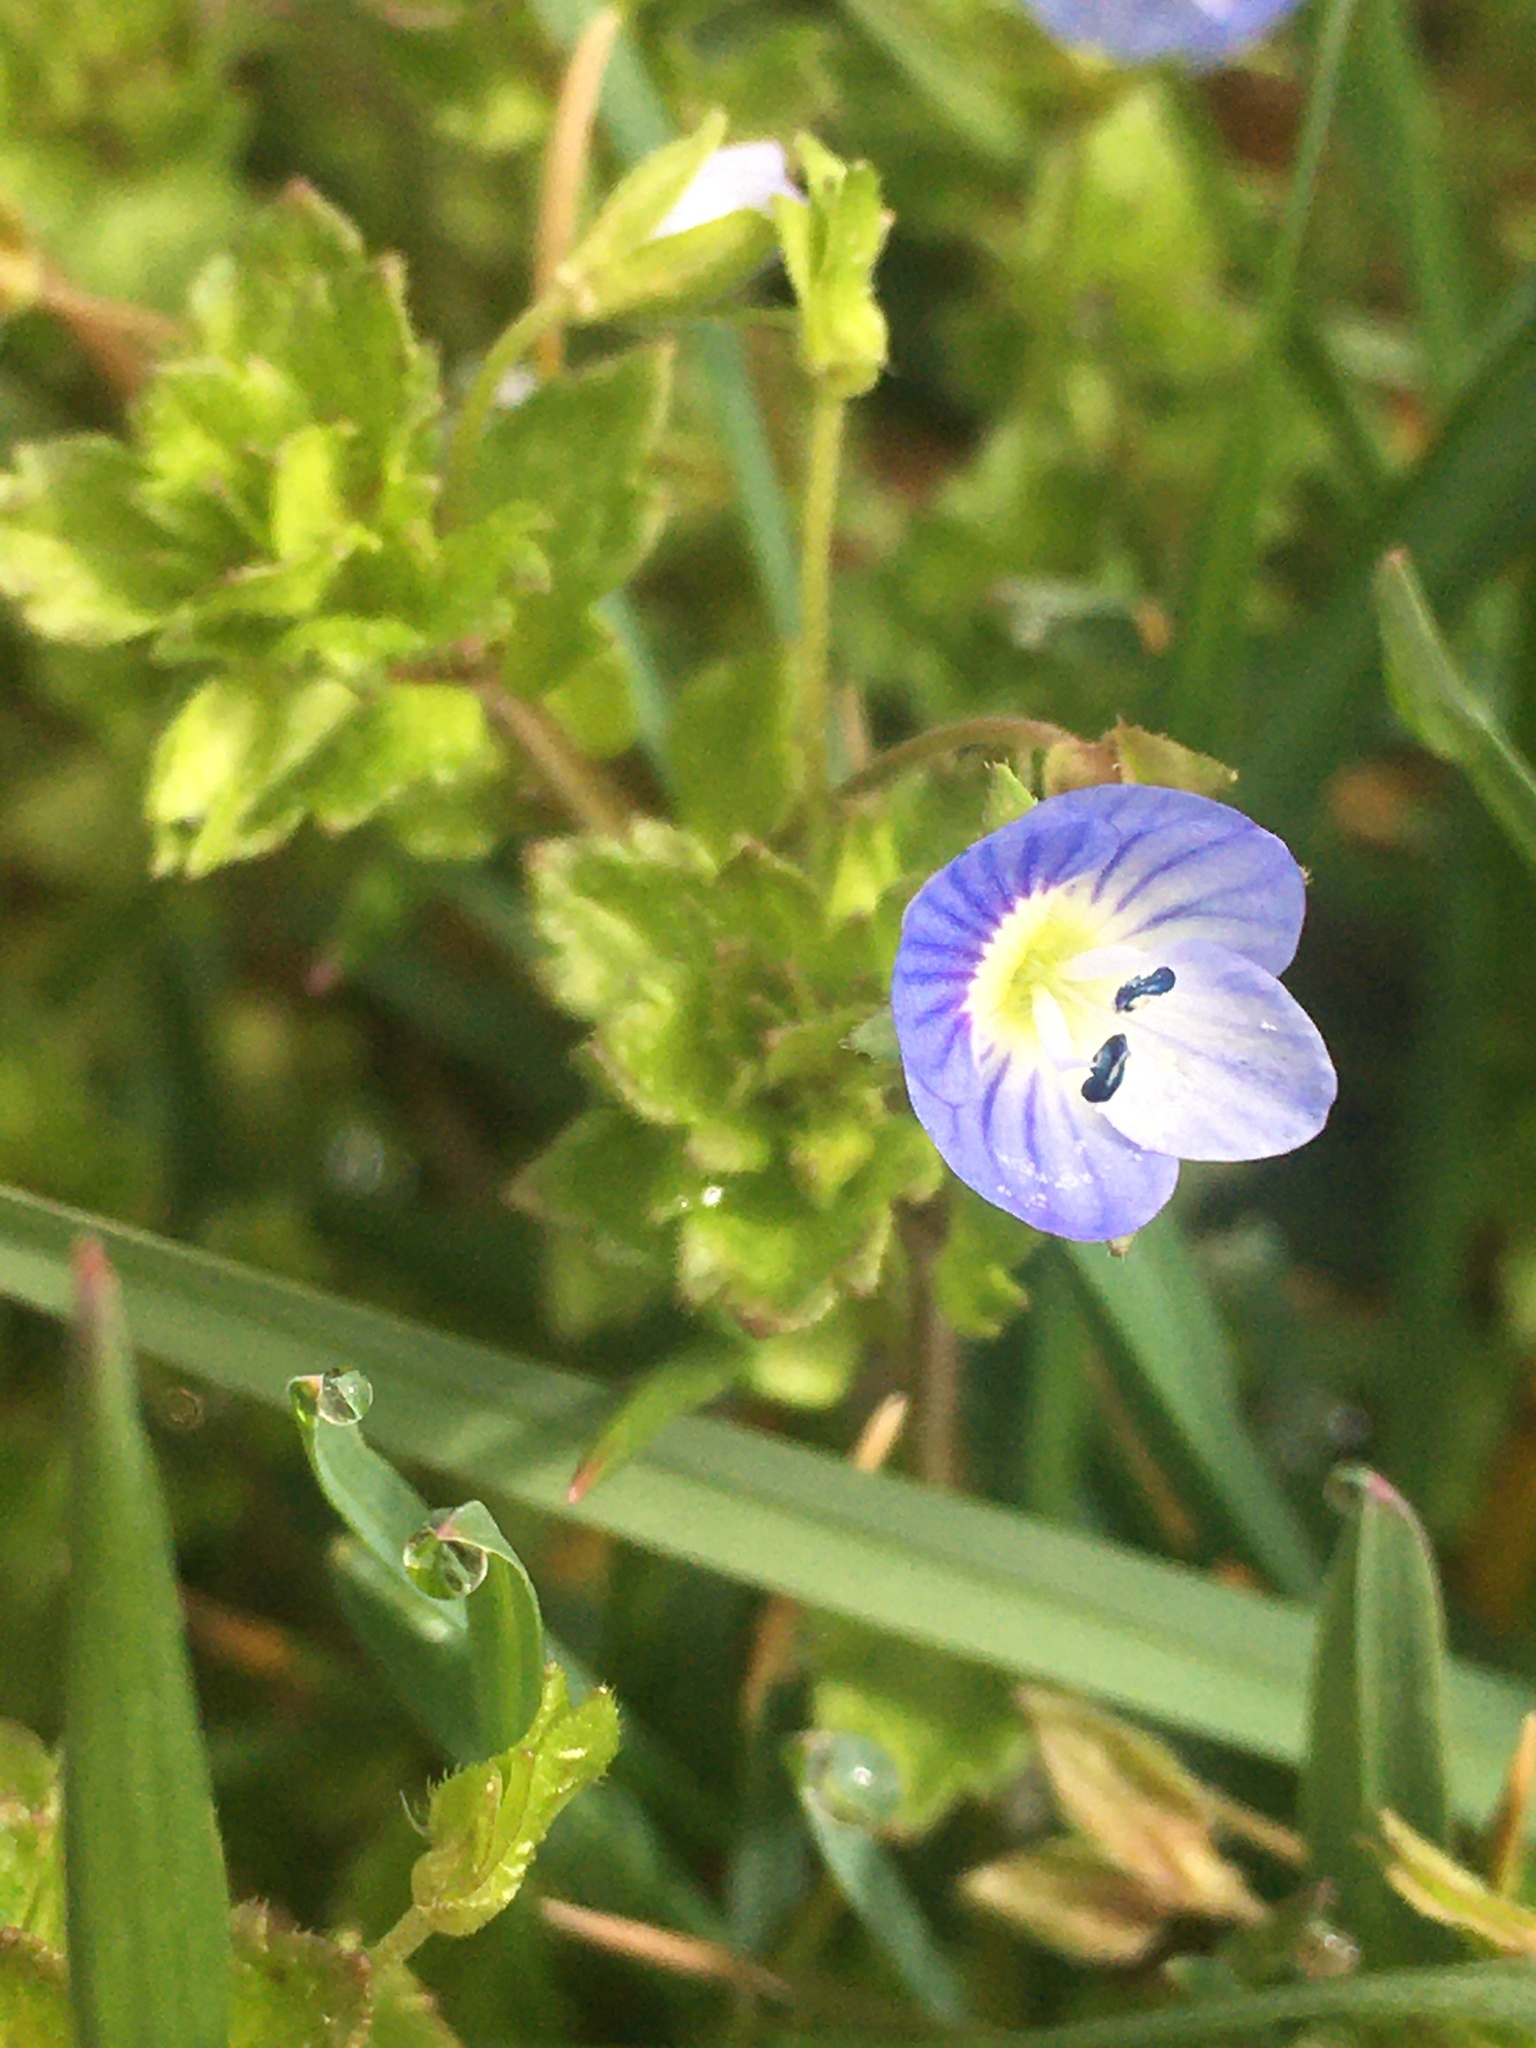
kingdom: Plantae
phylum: Tracheophyta
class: Magnoliopsida
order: Lamiales
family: Plantaginaceae
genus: Veronica
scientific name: Veronica persica
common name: Common field-speedwell
